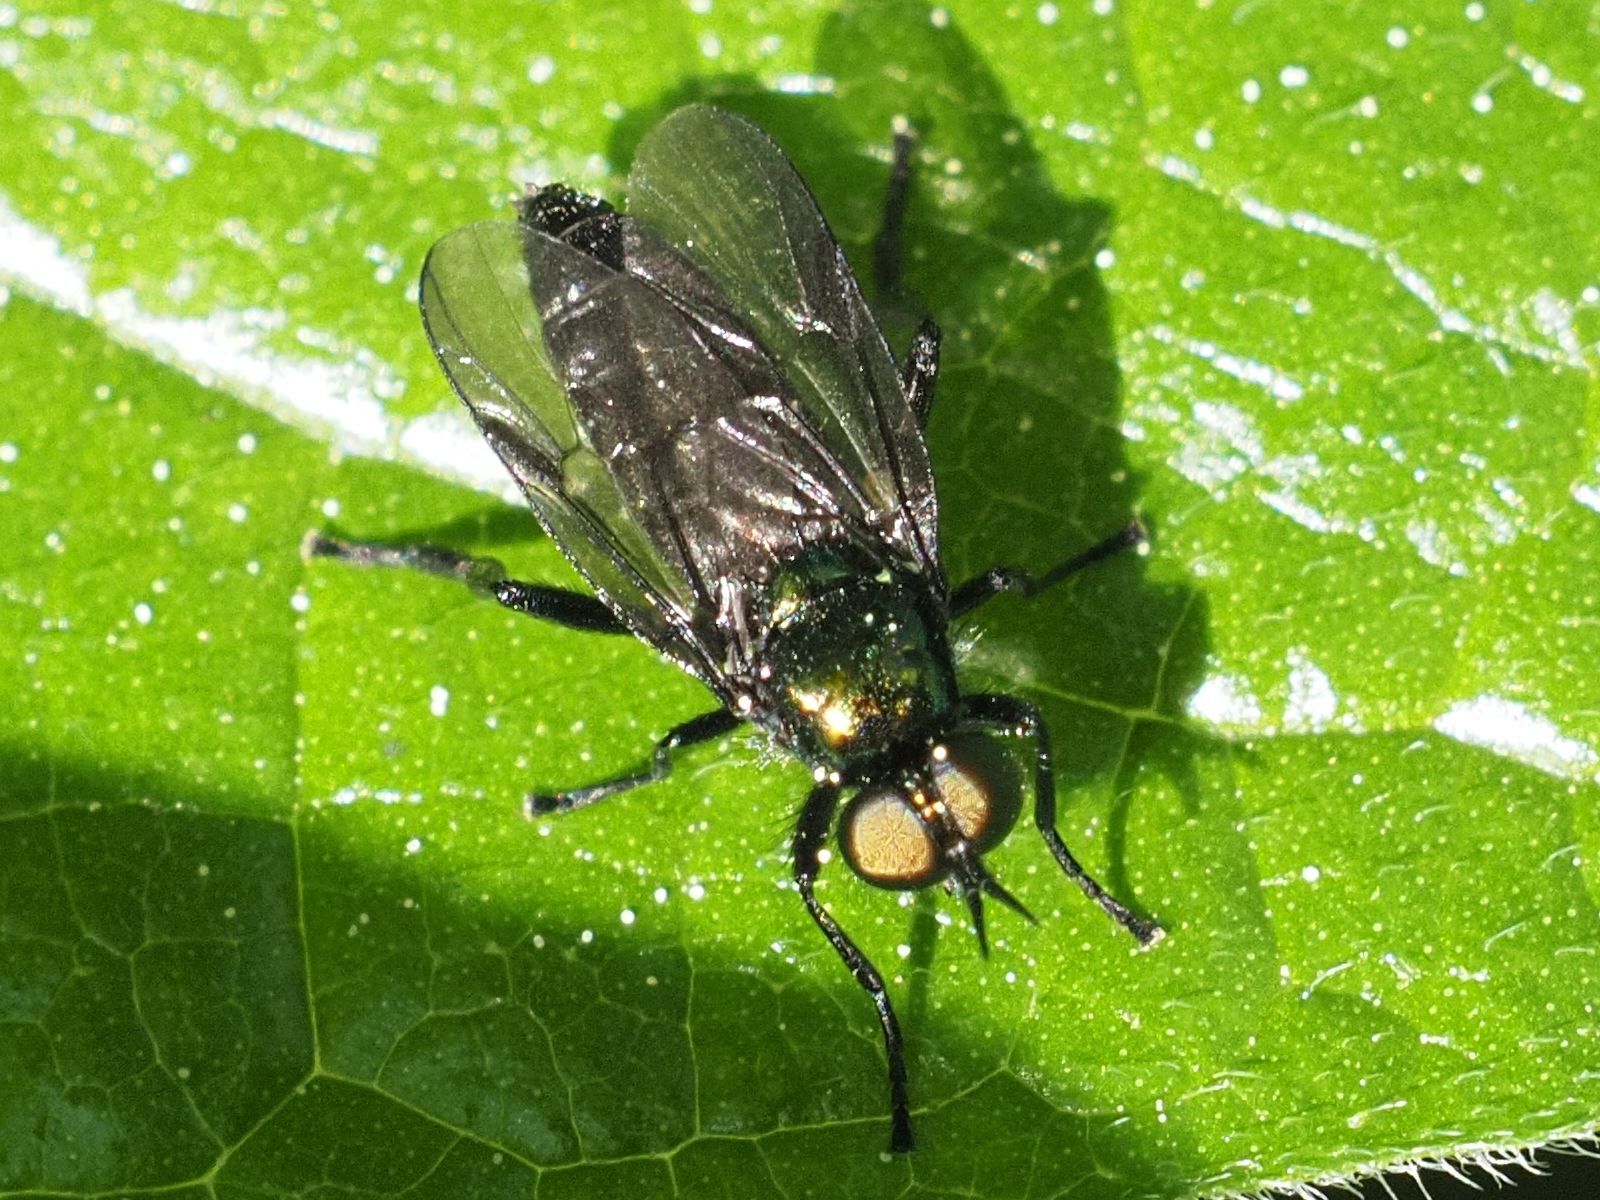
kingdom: Animalia
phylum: Arthropoda
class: Insecta
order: Diptera
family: Stratiomyidae
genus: Actina
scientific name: Actina chalybea
